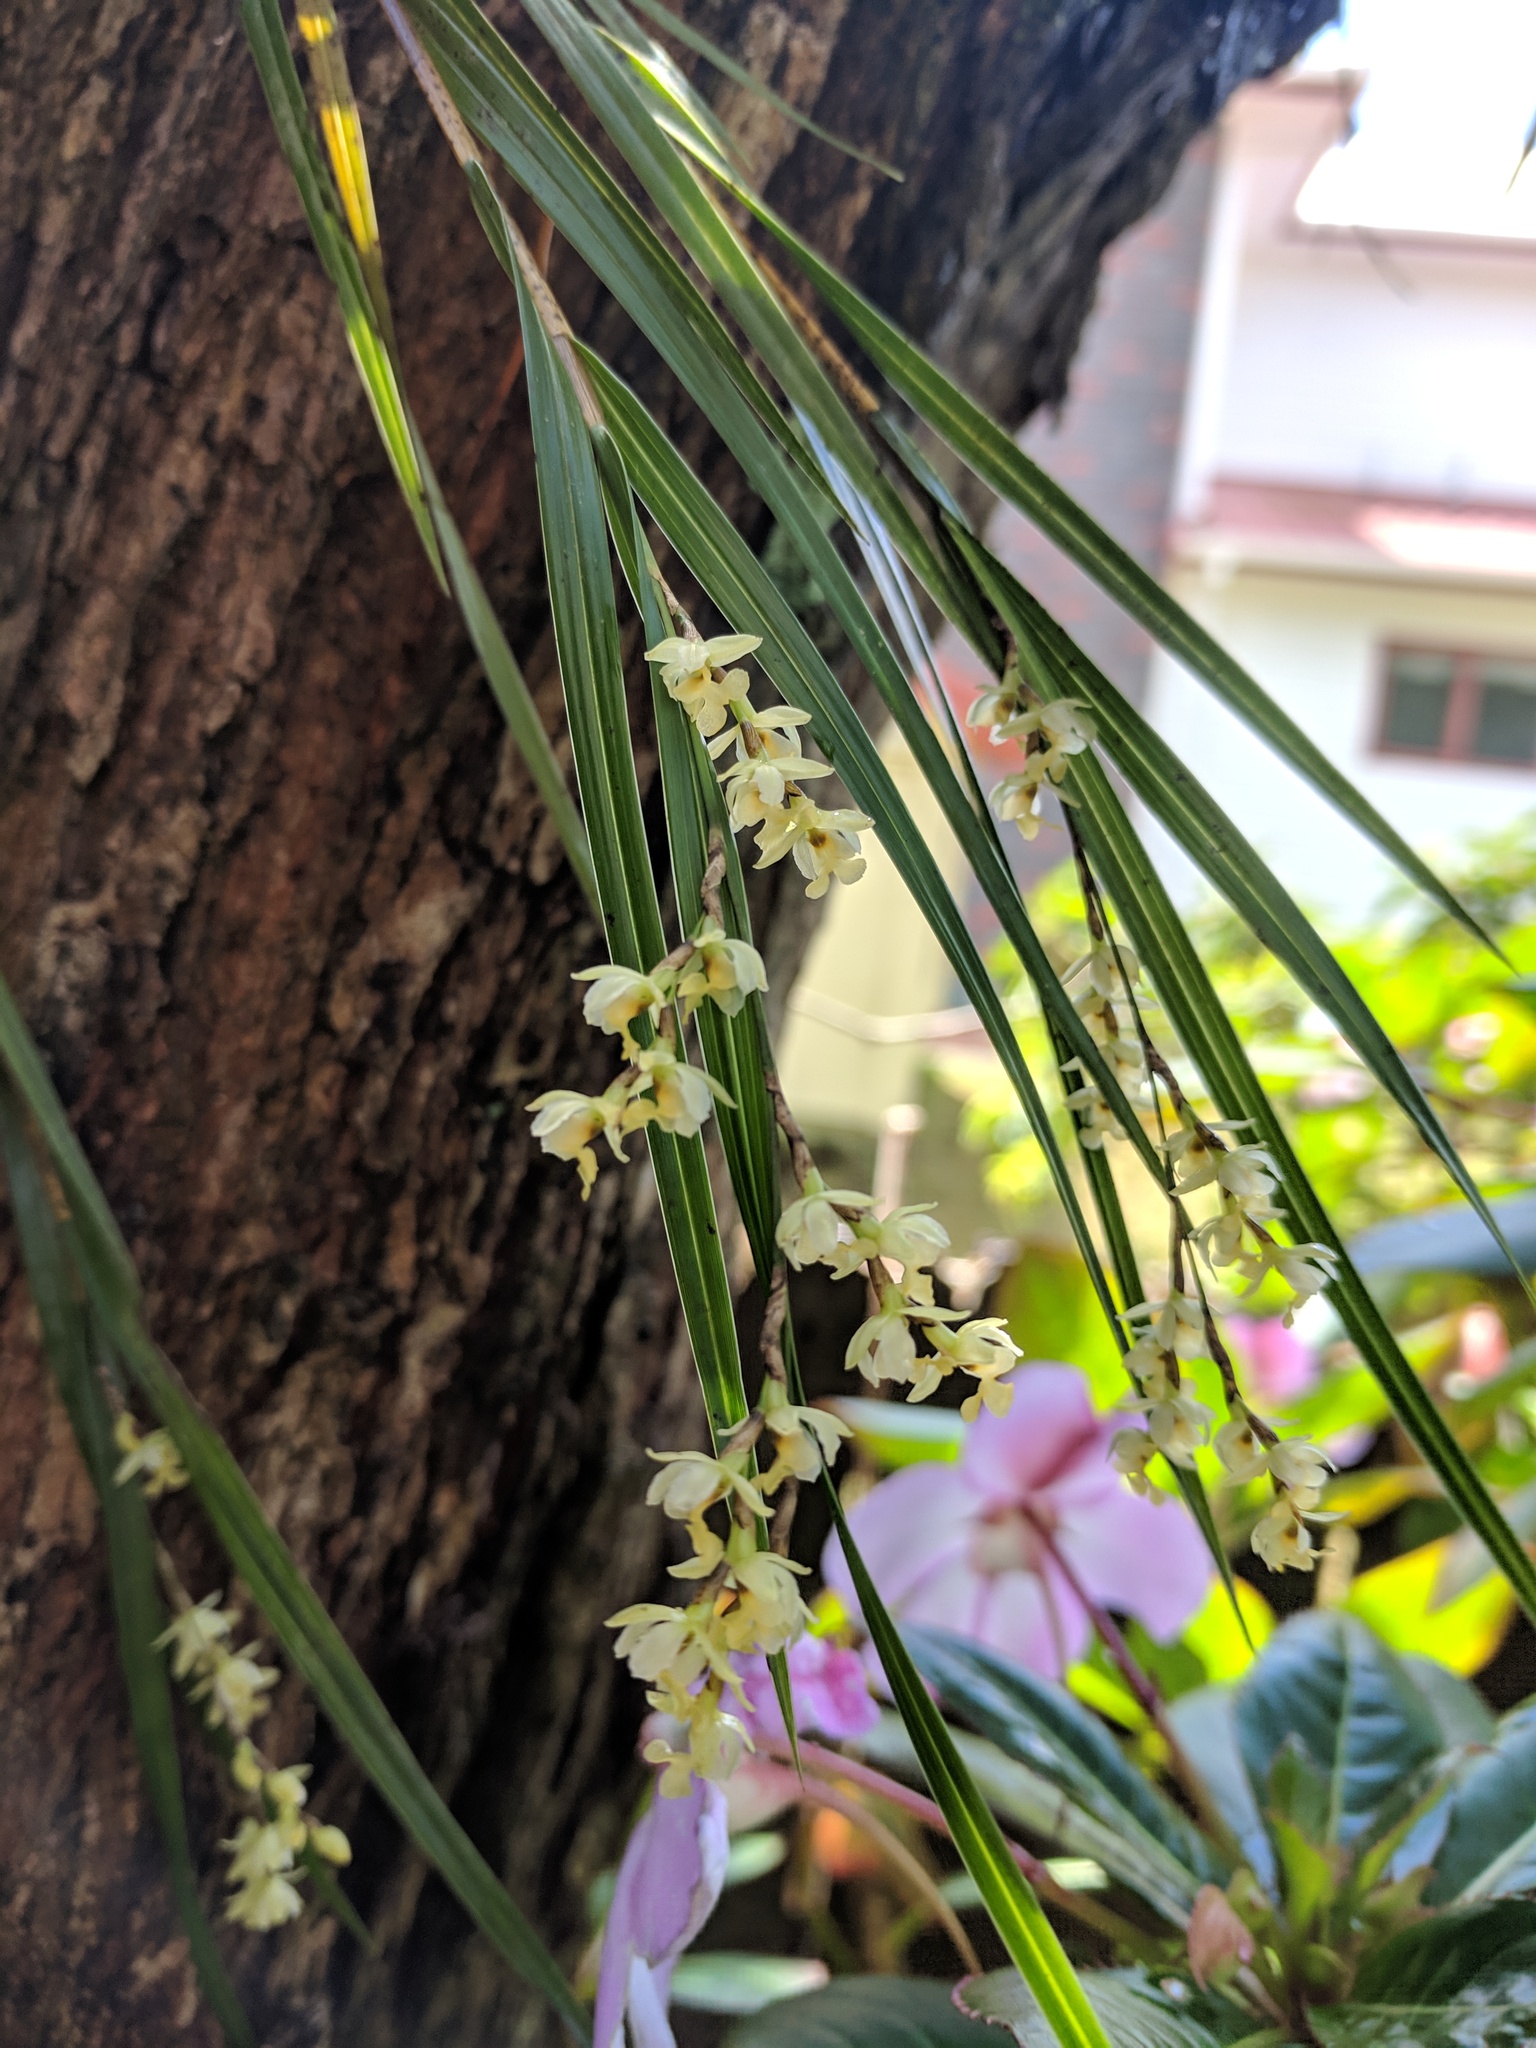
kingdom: Plantae
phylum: Tracheophyta
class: Liliopsida
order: Asparagales
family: Orchidaceae
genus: Earina
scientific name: Earina mucronata
